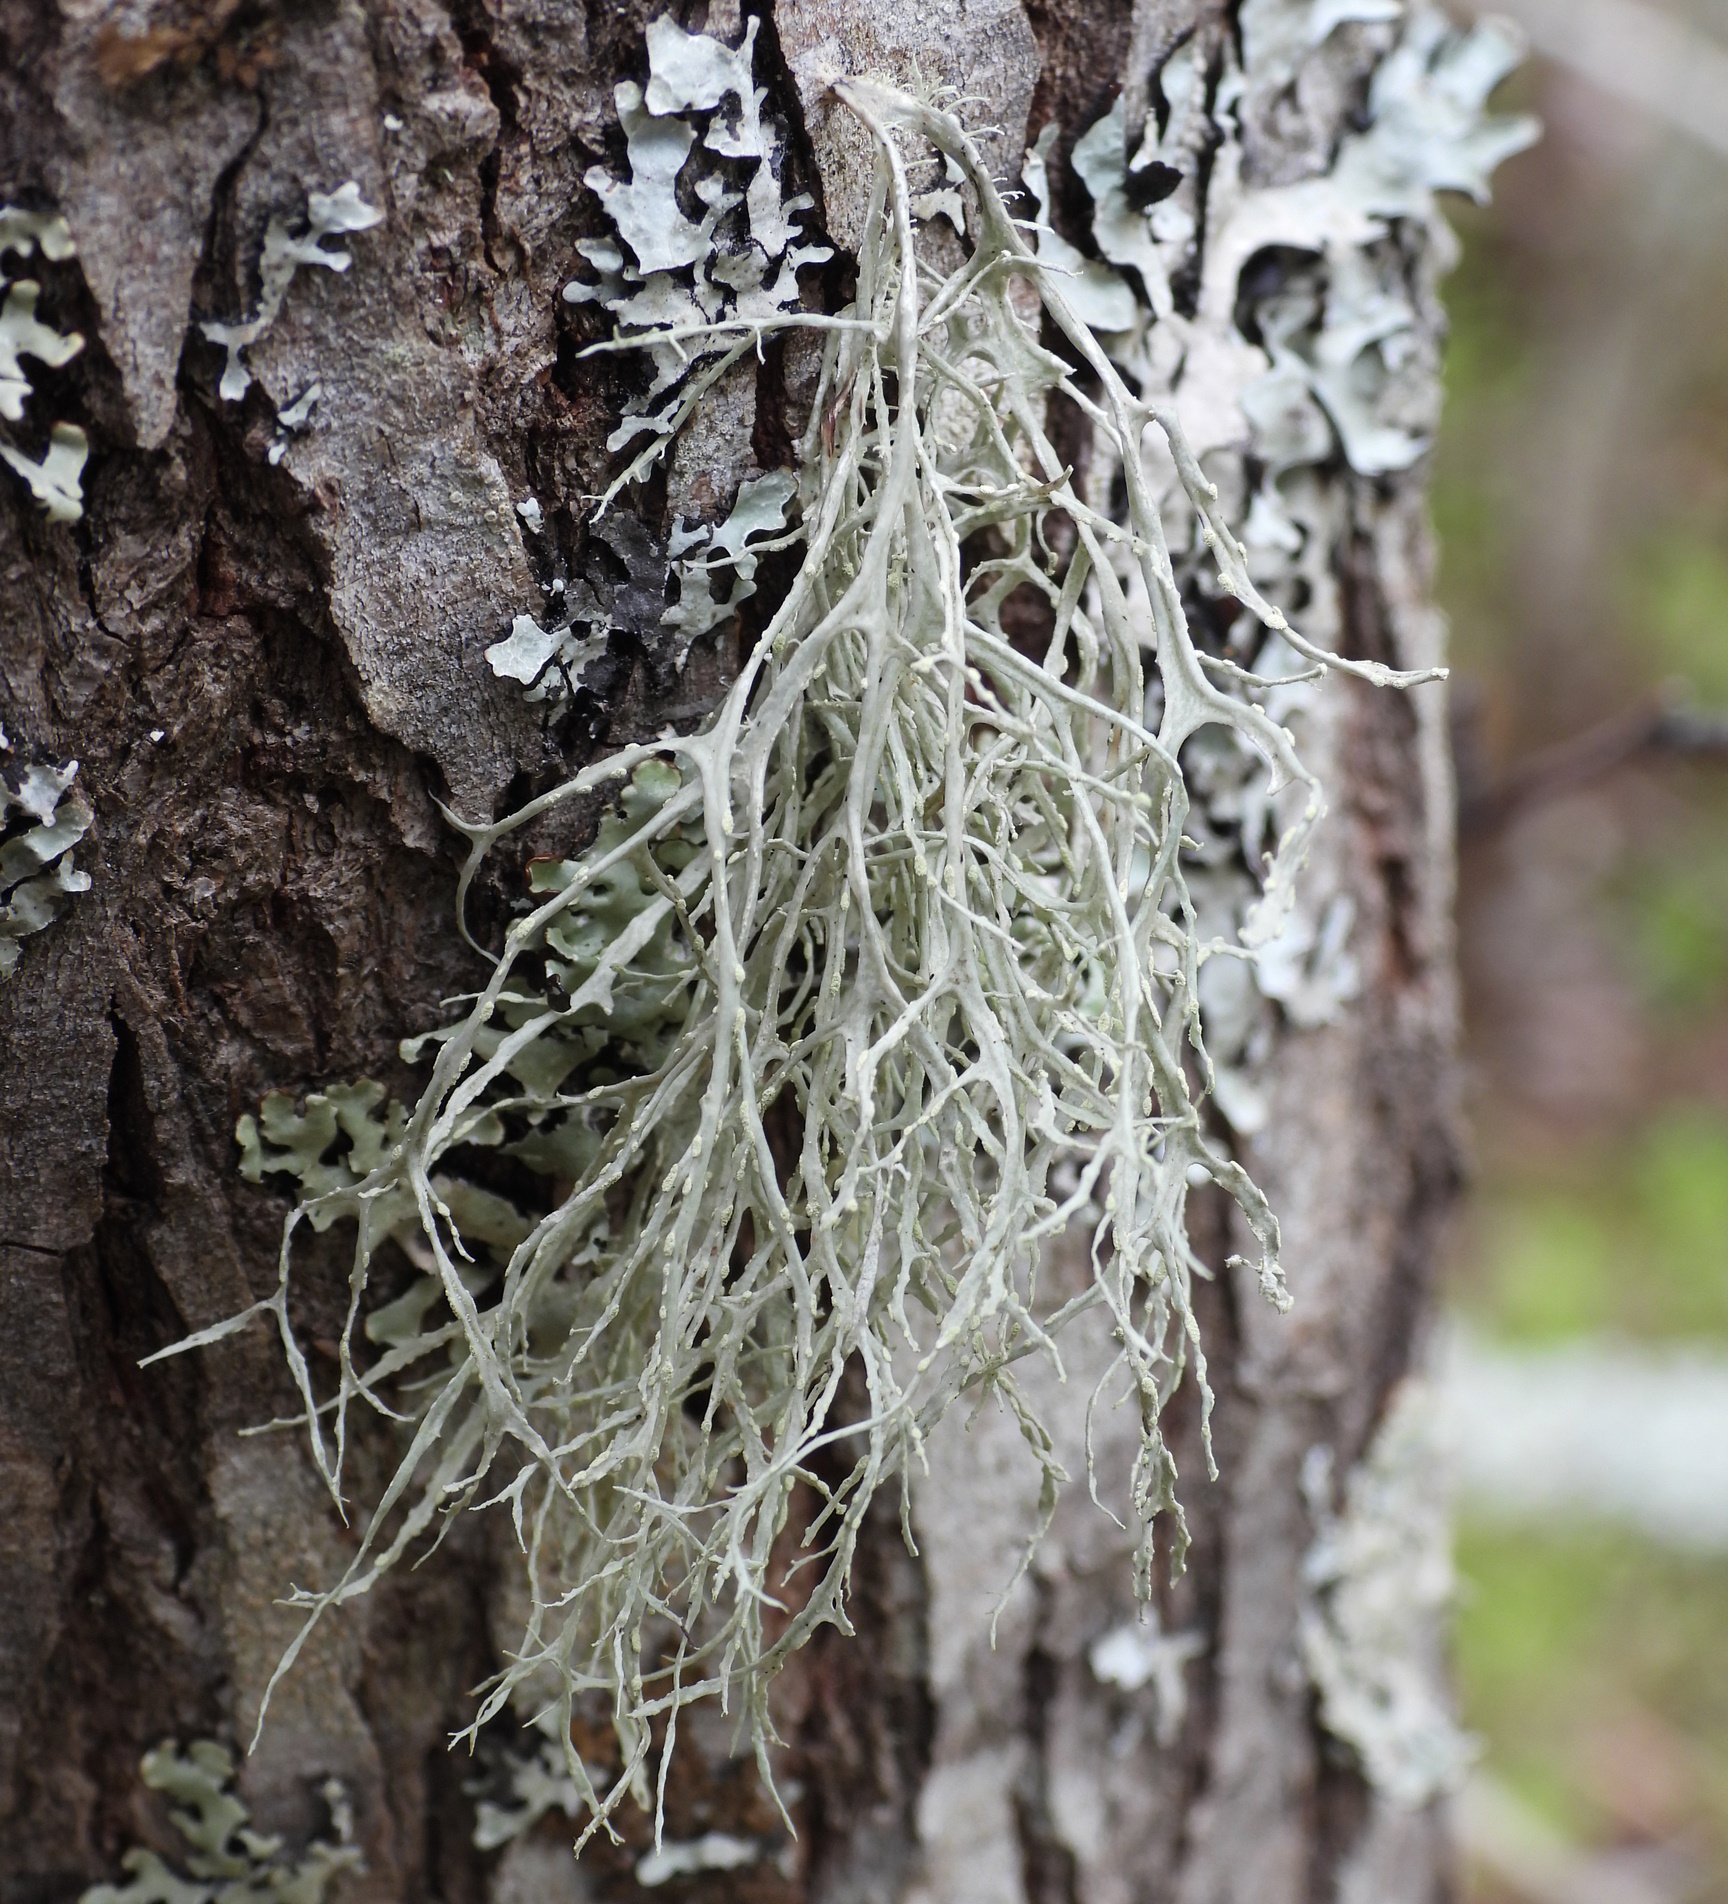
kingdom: Fungi
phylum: Ascomycota
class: Lecanoromycetes
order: Lecanorales
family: Ramalinaceae
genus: Ramalina
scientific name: Ramalina farinacea
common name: Farinose cartilage lichen
